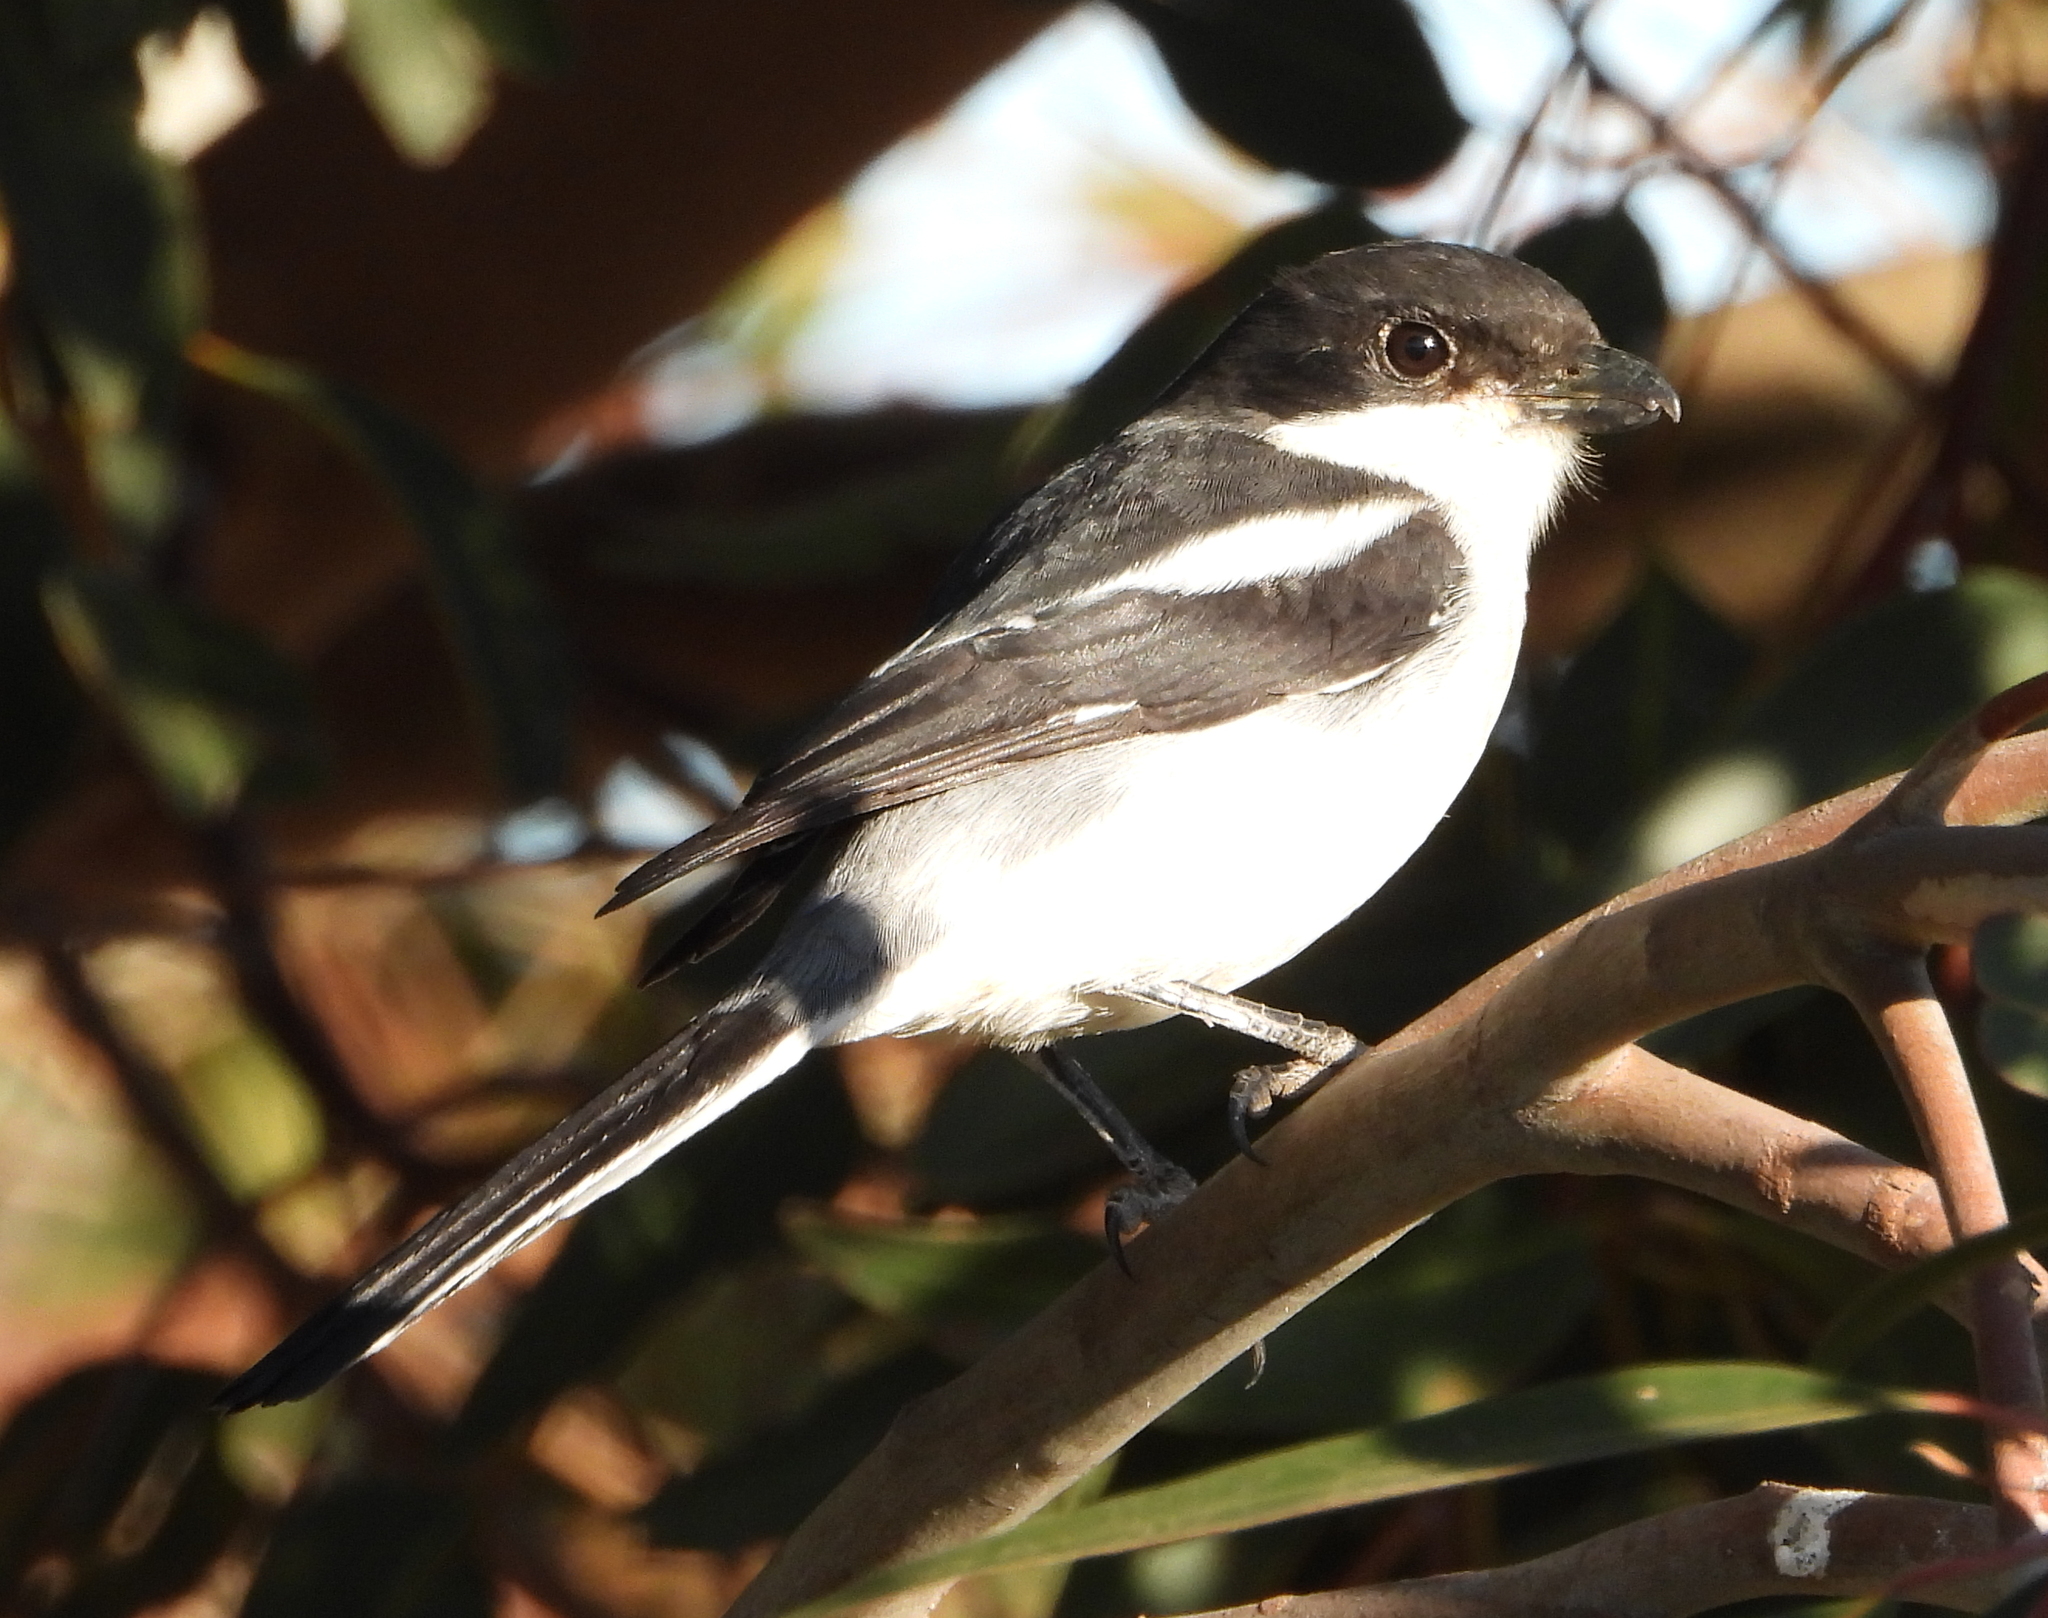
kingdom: Animalia
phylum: Chordata
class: Aves
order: Passeriformes
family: Laniidae
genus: Lanius
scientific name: Lanius collaris
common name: Southern fiscal
